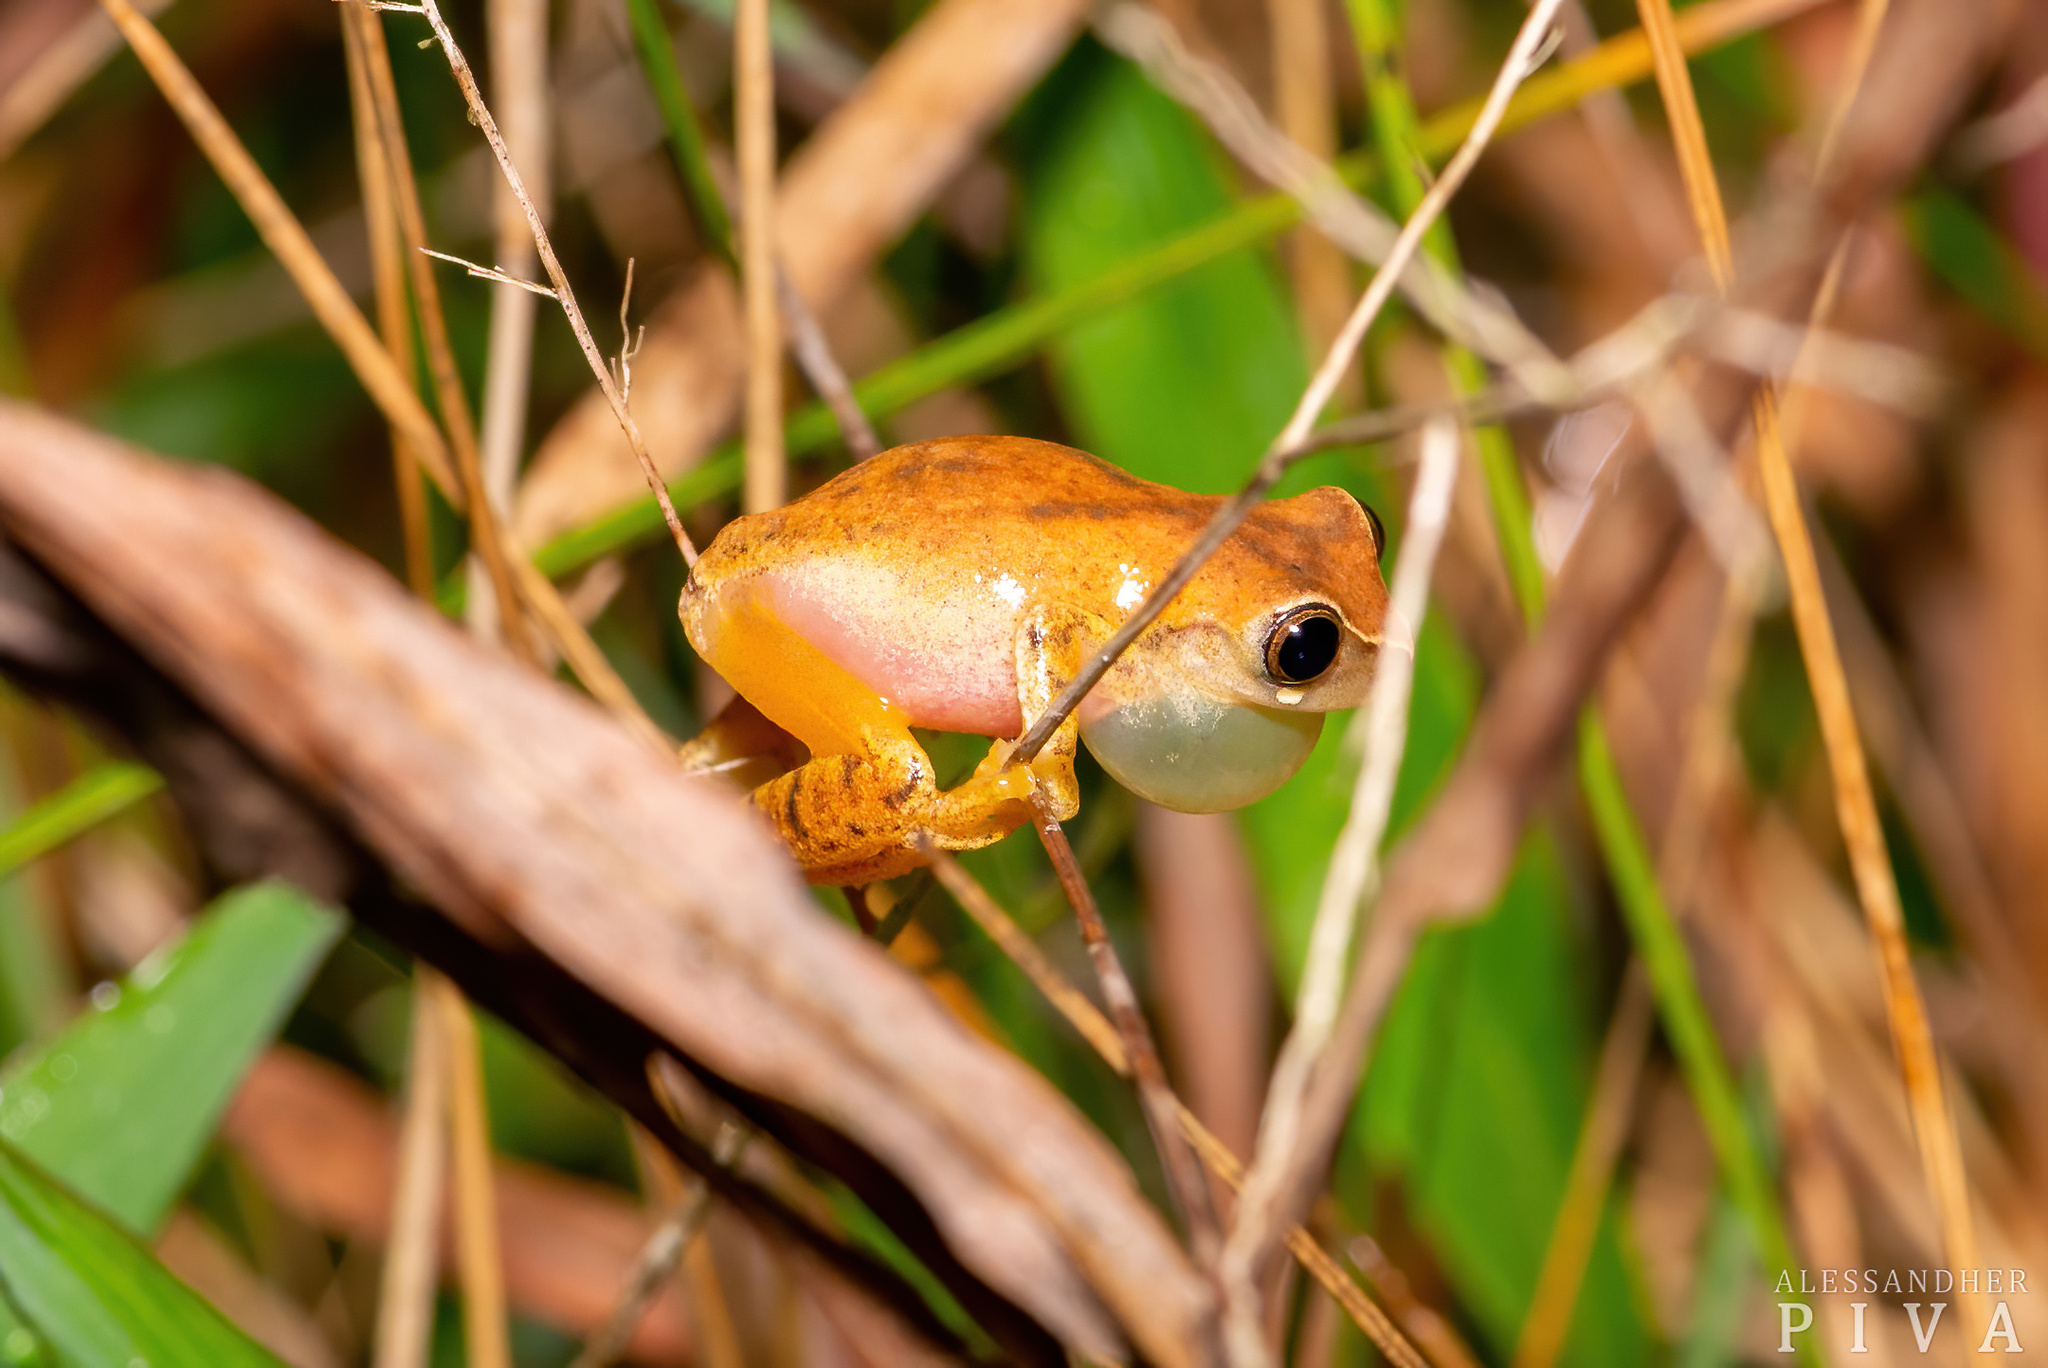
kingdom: Animalia
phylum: Chordata
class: Amphibia
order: Anura
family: Hylidae
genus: Dendropsophus
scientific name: Dendropsophus werneri
